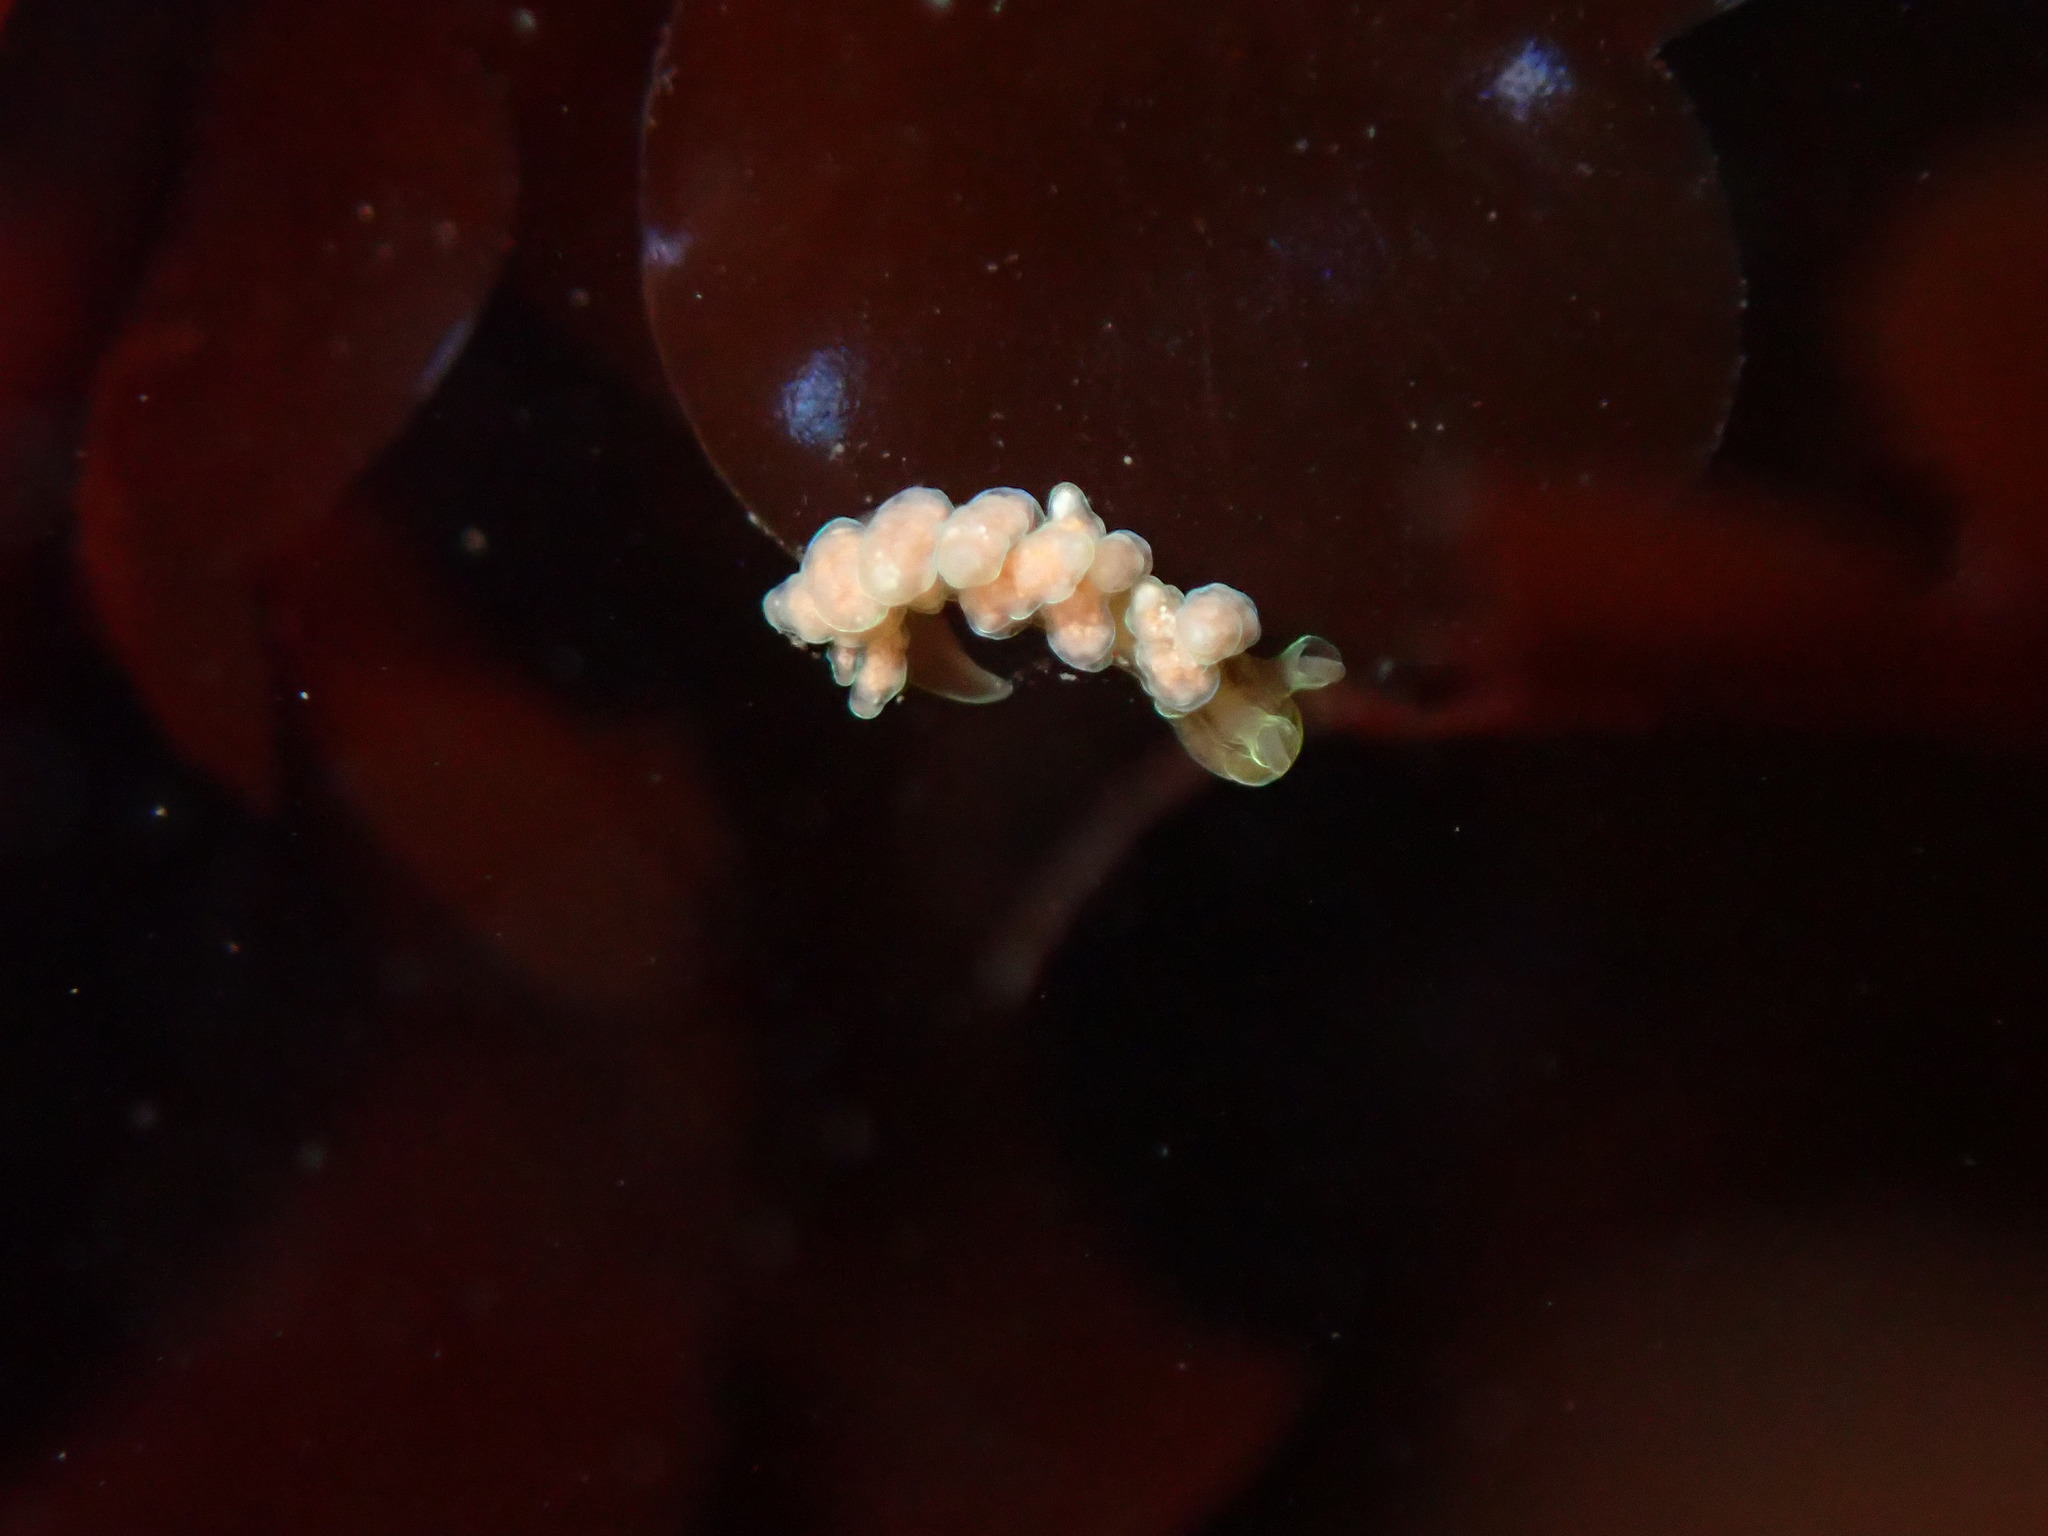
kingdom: Animalia
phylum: Mollusca
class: Gastropoda
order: Nudibranchia
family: Dotidae
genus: Doto
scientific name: Doto columbiana
